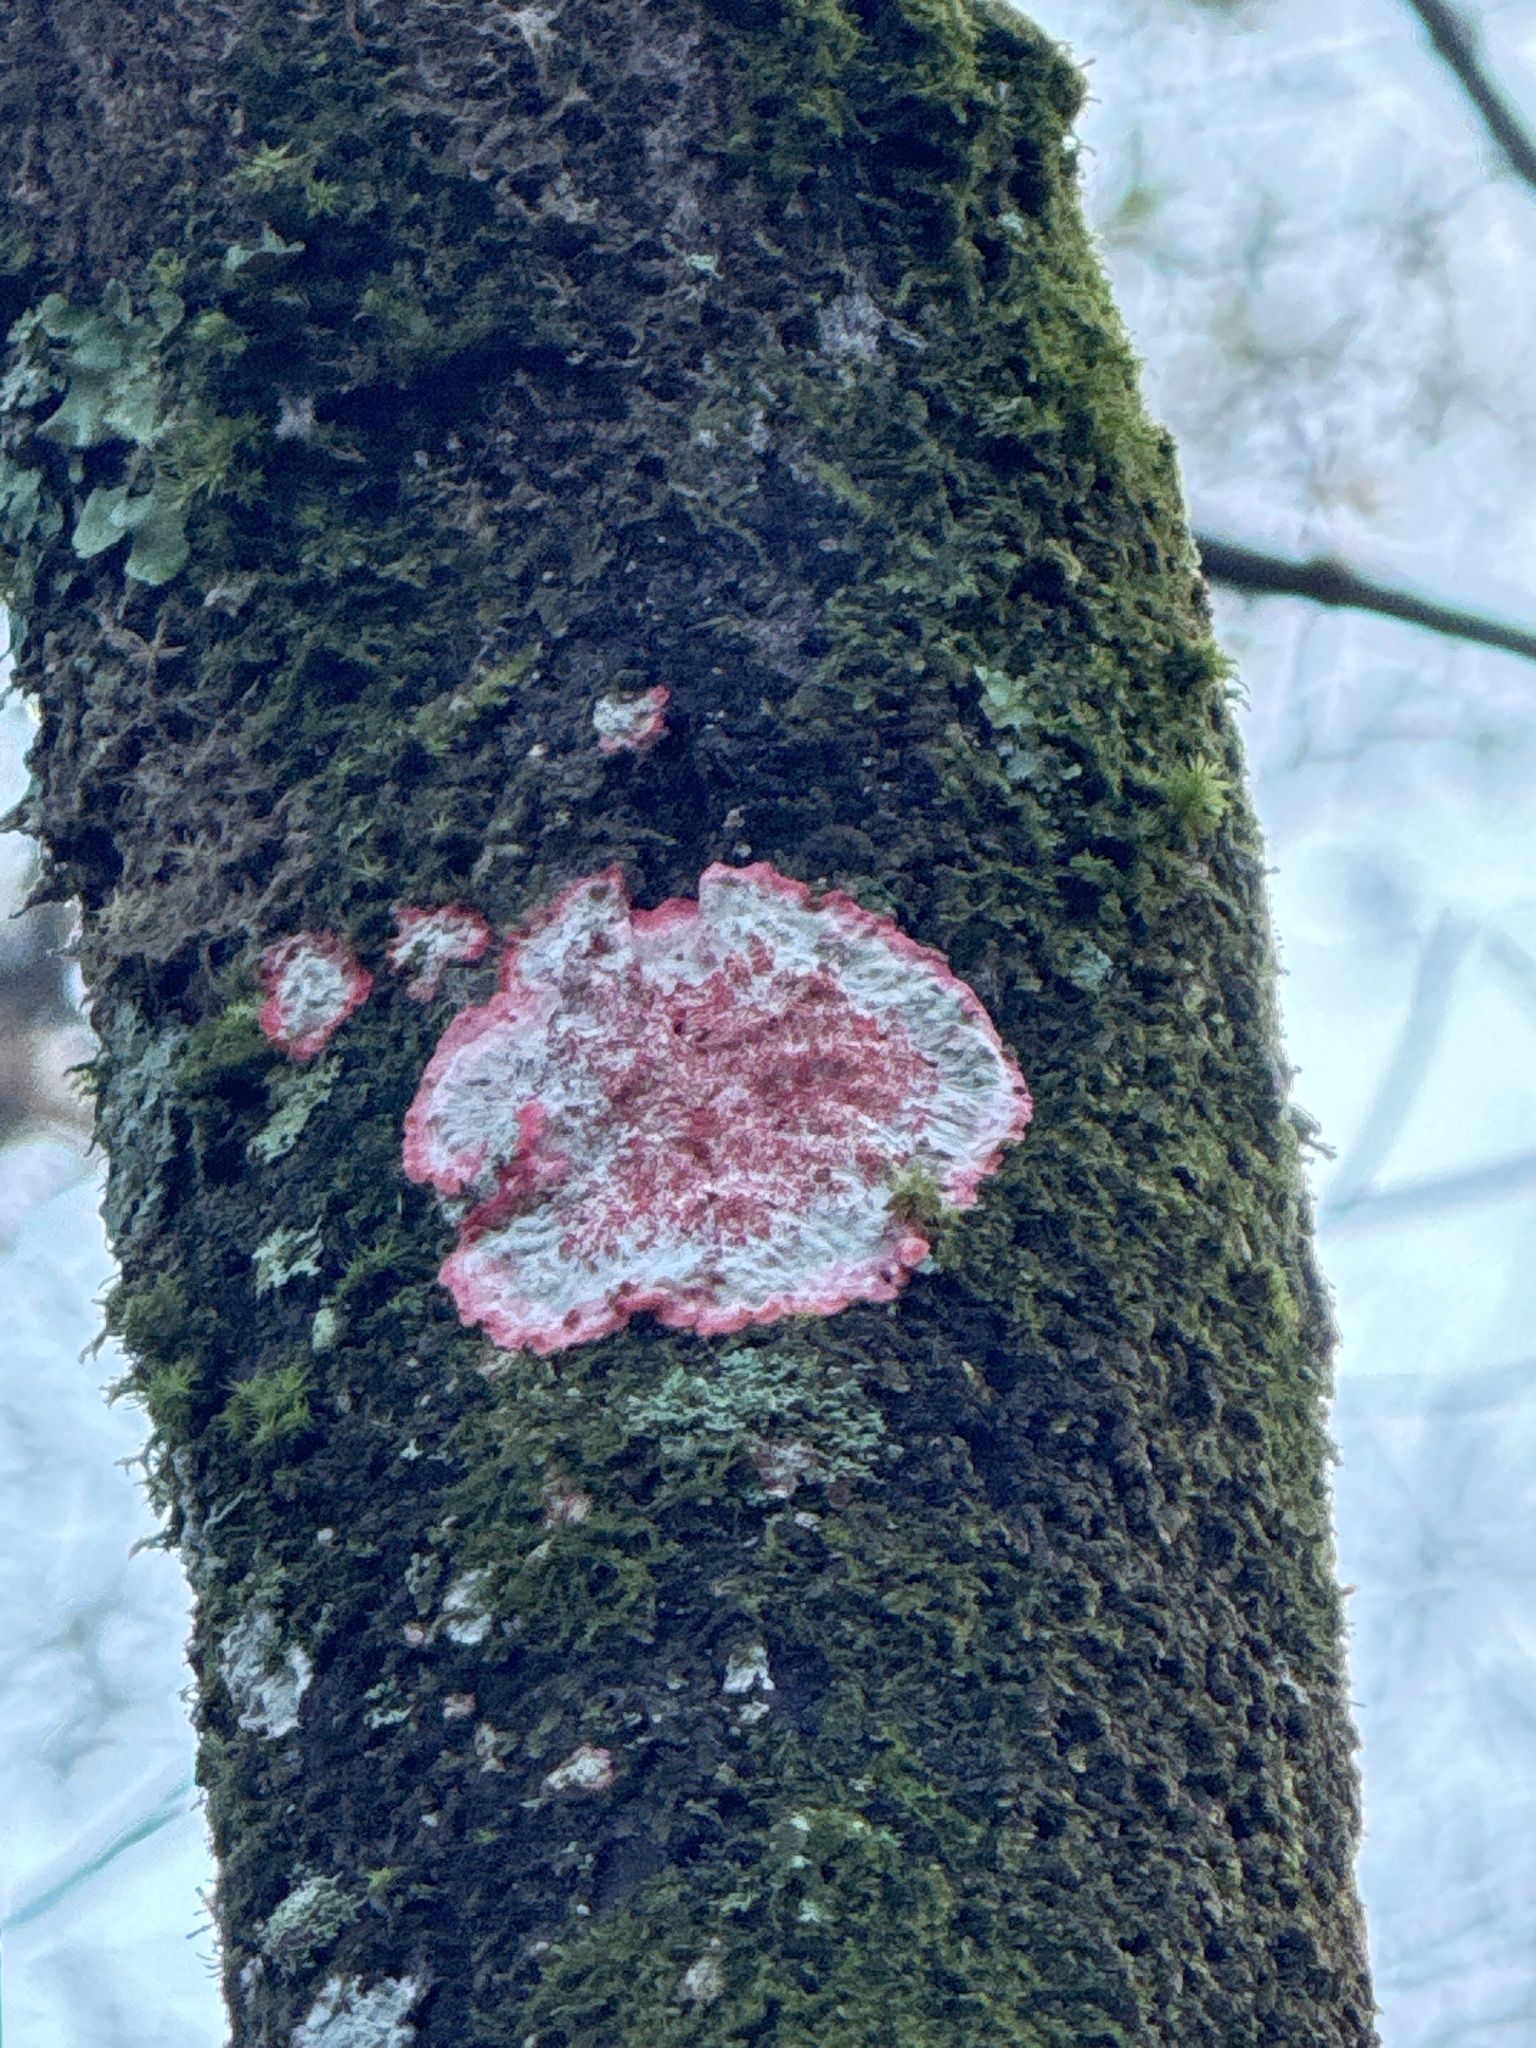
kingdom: Fungi
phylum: Ascomycota
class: Arthoniomycetes
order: Arthoniales
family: Arthoniaceae
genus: Herpothallon
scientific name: Herpothallon rubrocinctum
